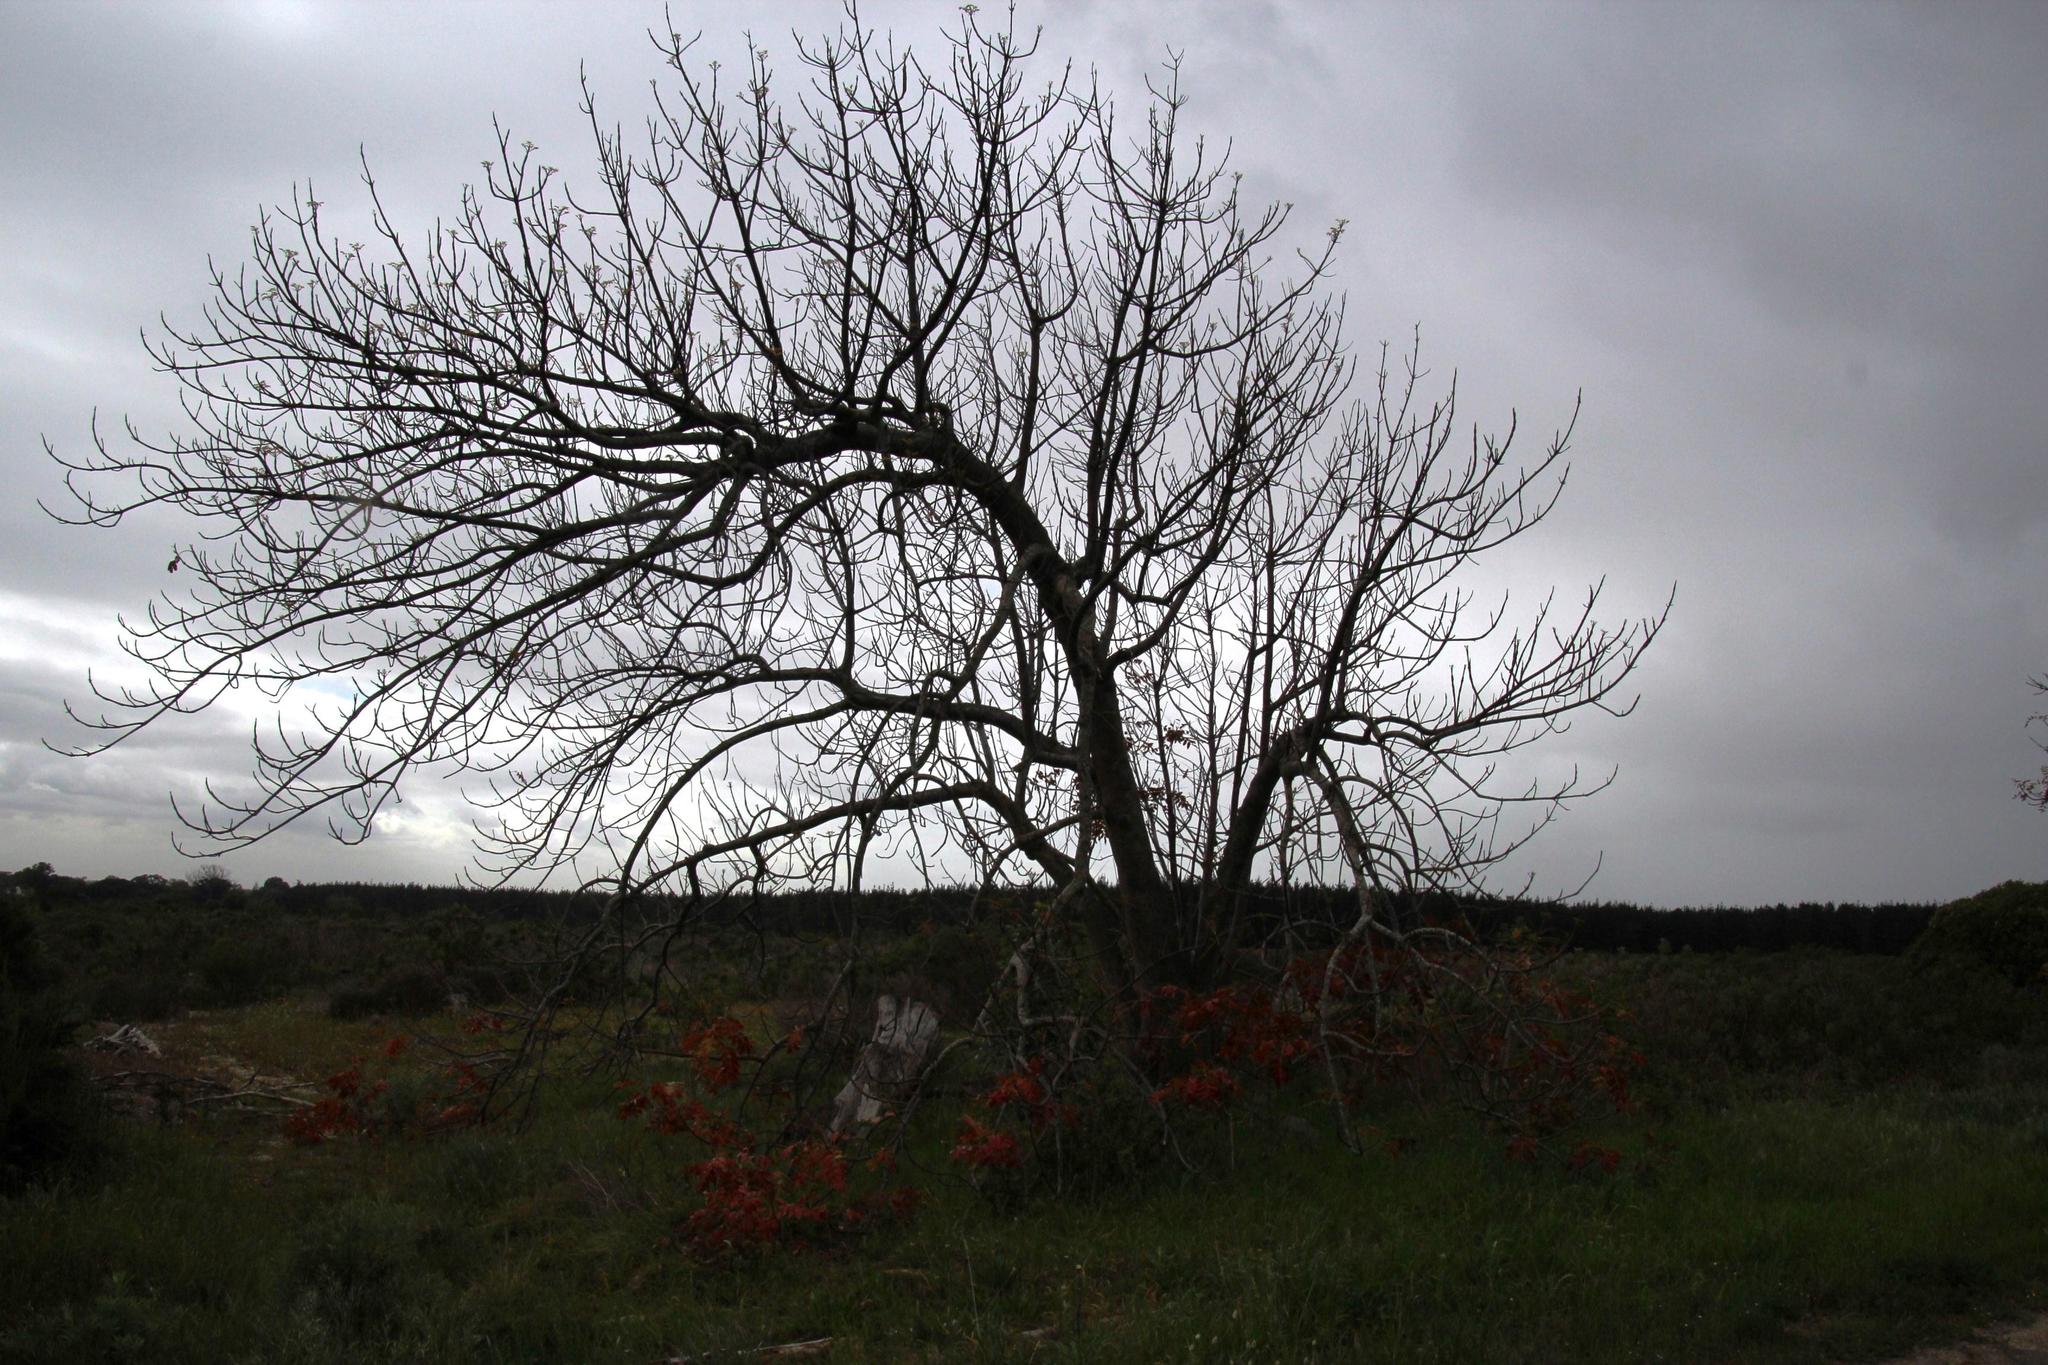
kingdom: Plantae
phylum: Tracheophyta
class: Magnoliopsida
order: Sapindales
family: Meliaceae
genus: Ekebergia
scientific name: Ekebergia capensis
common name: Cape-ash
